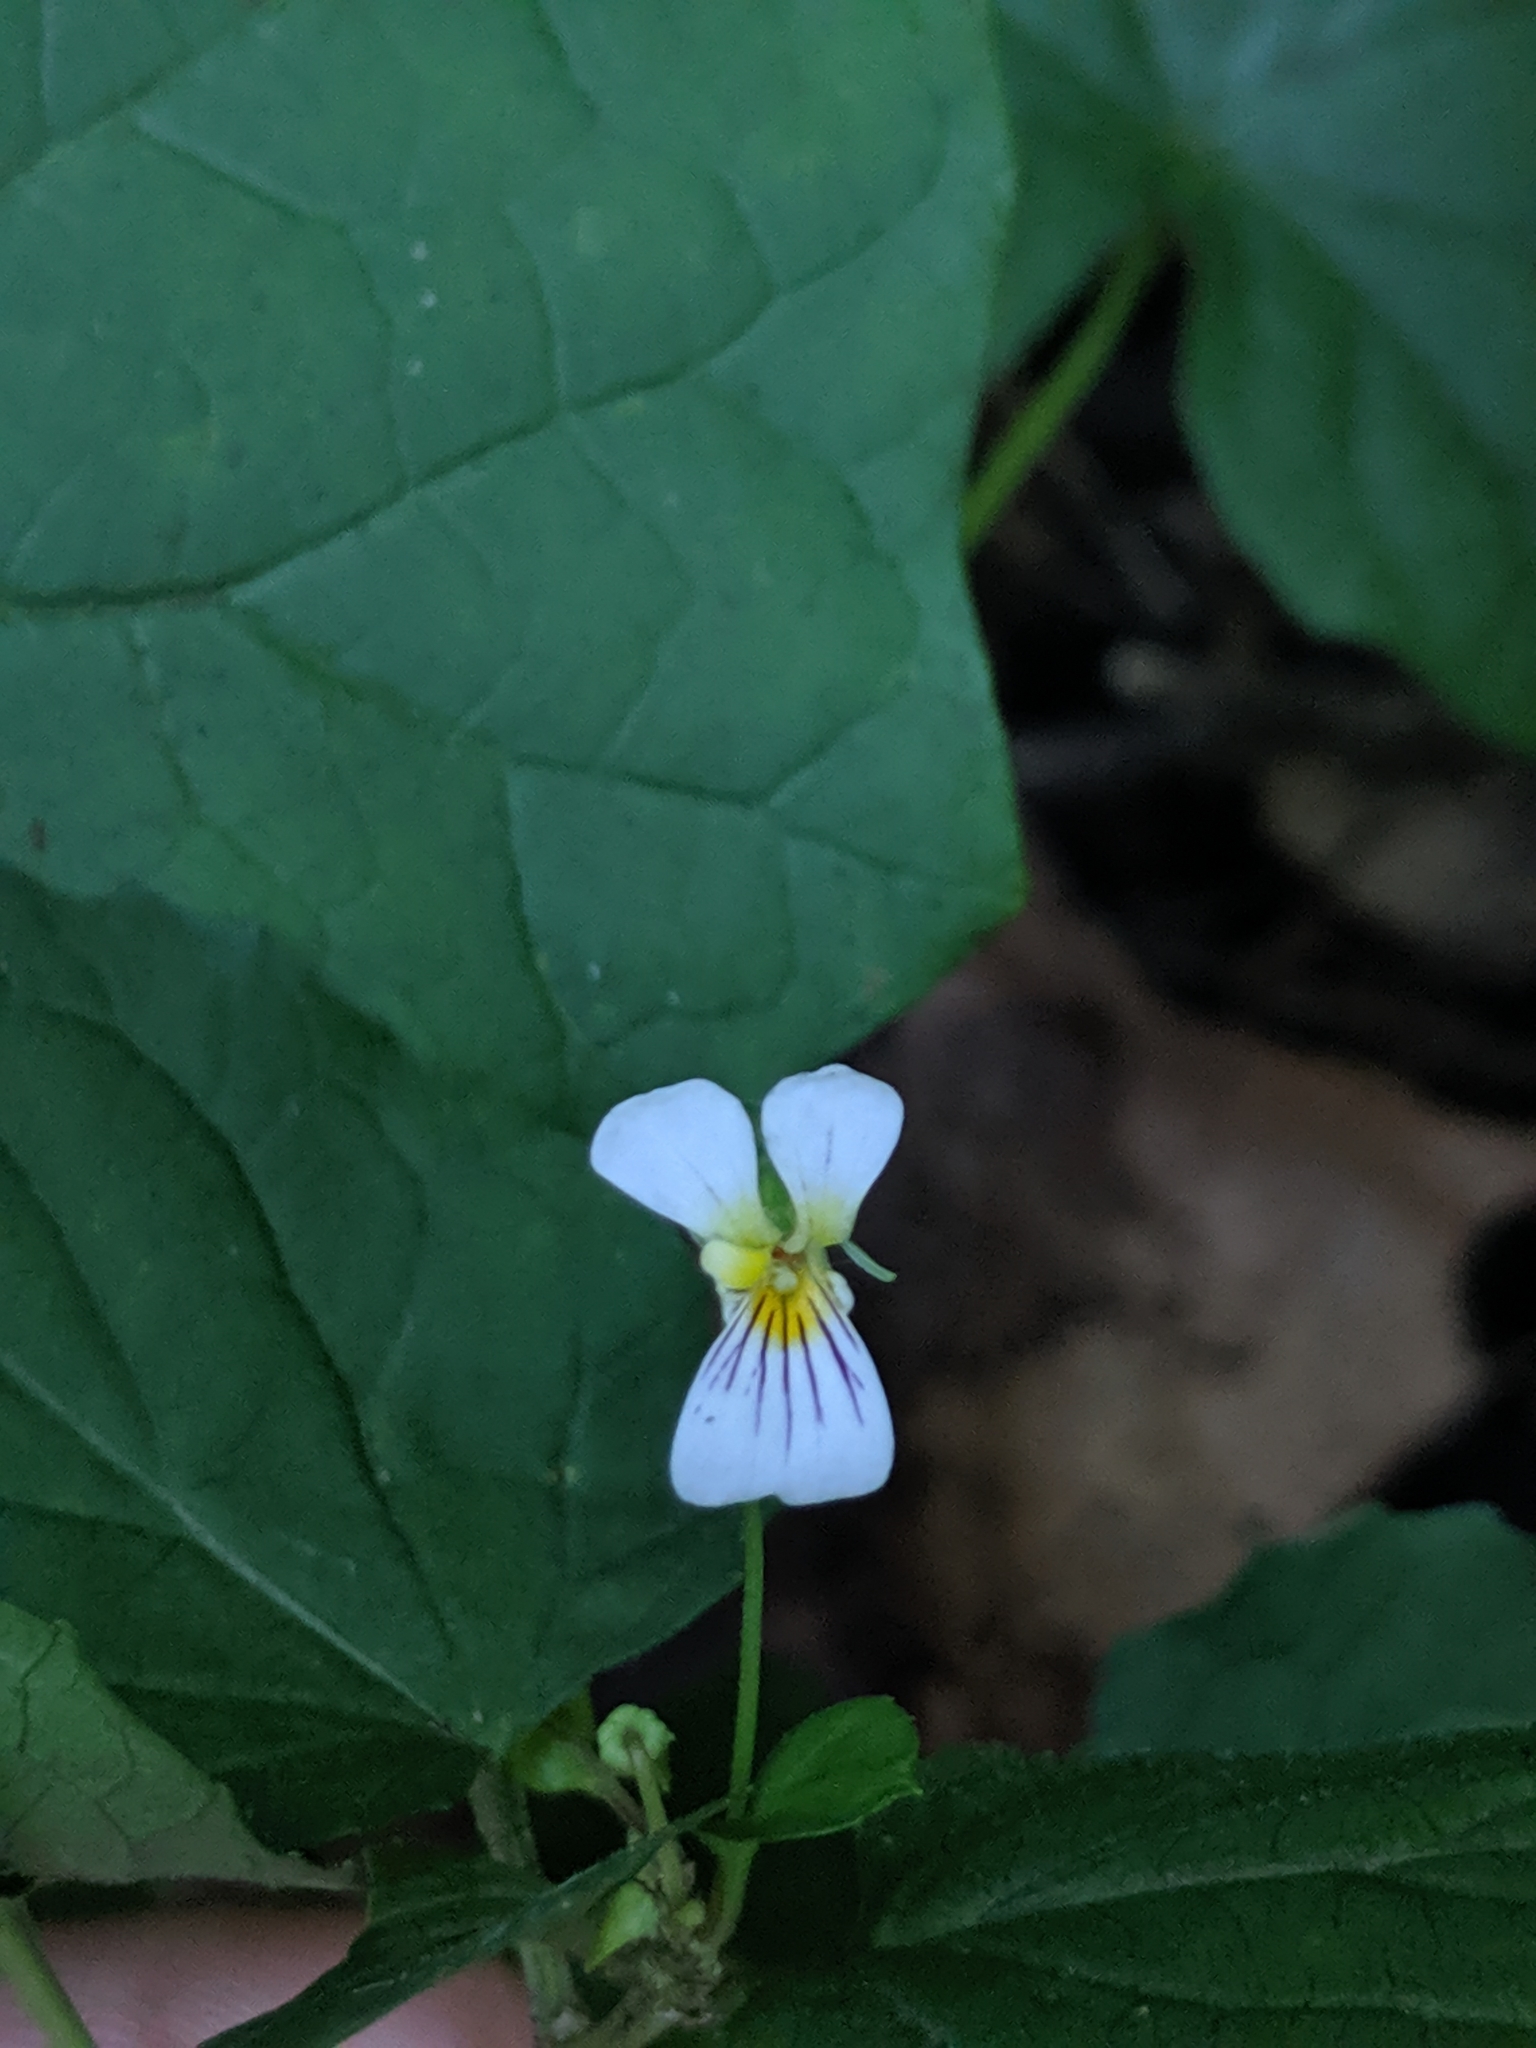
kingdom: Plantae
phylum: Tracheophyta
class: Magnoliopsida
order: Malpighiales
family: Violaceae
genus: Viola
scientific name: Viola canadensis
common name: Canada violet
